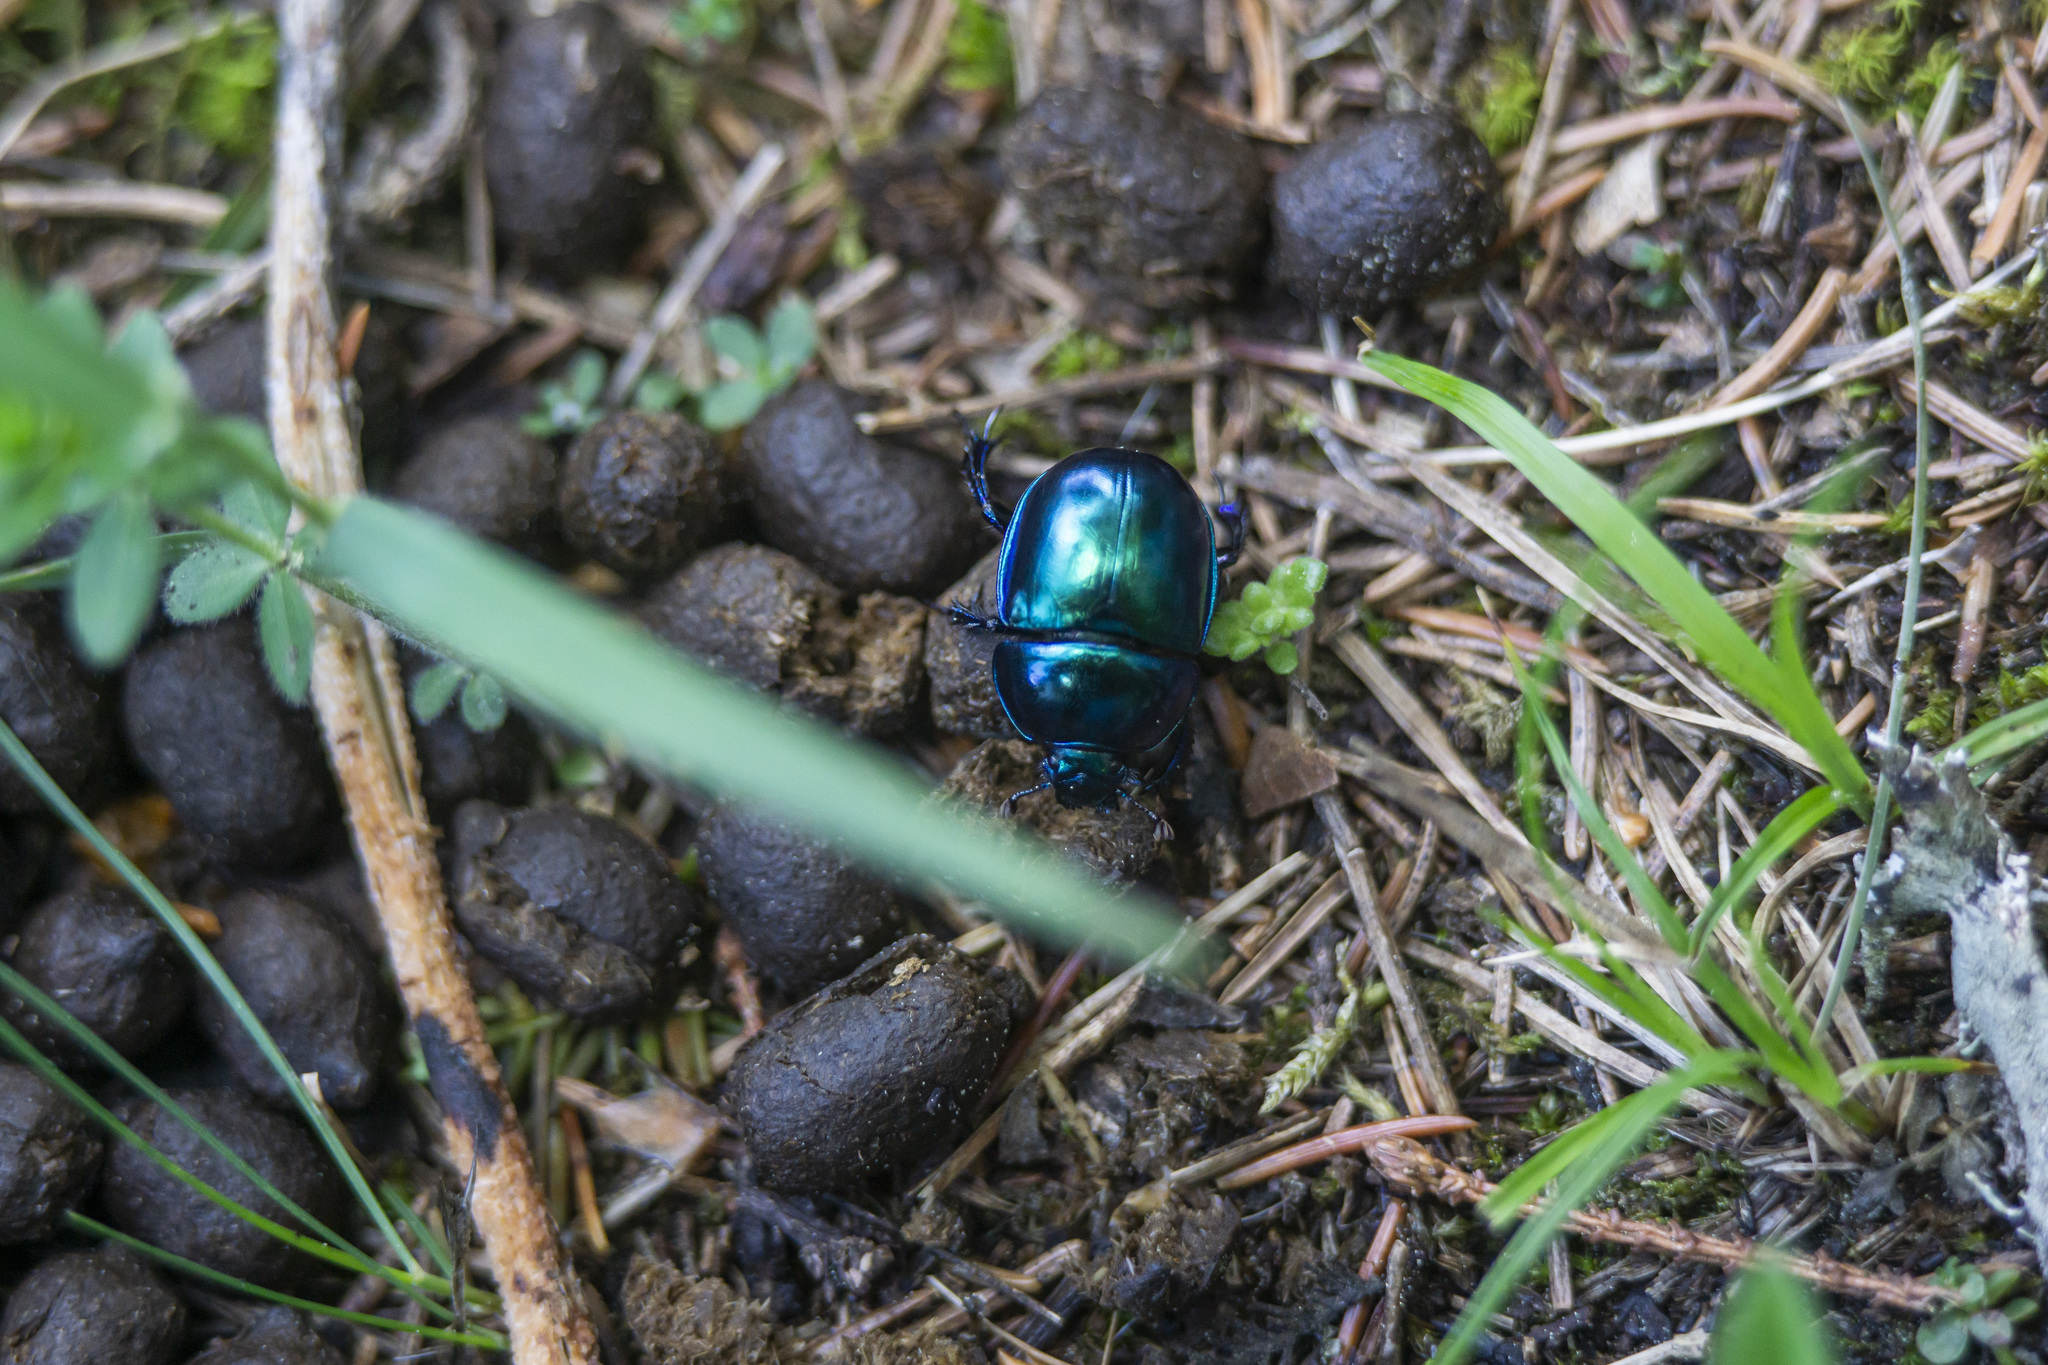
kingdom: Animalia
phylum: Arthropoda
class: Insecta
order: Coleoptera
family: Geotrupidae
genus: Trypocopris
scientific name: Trypocopris vernalis
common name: Spring dumbledor
